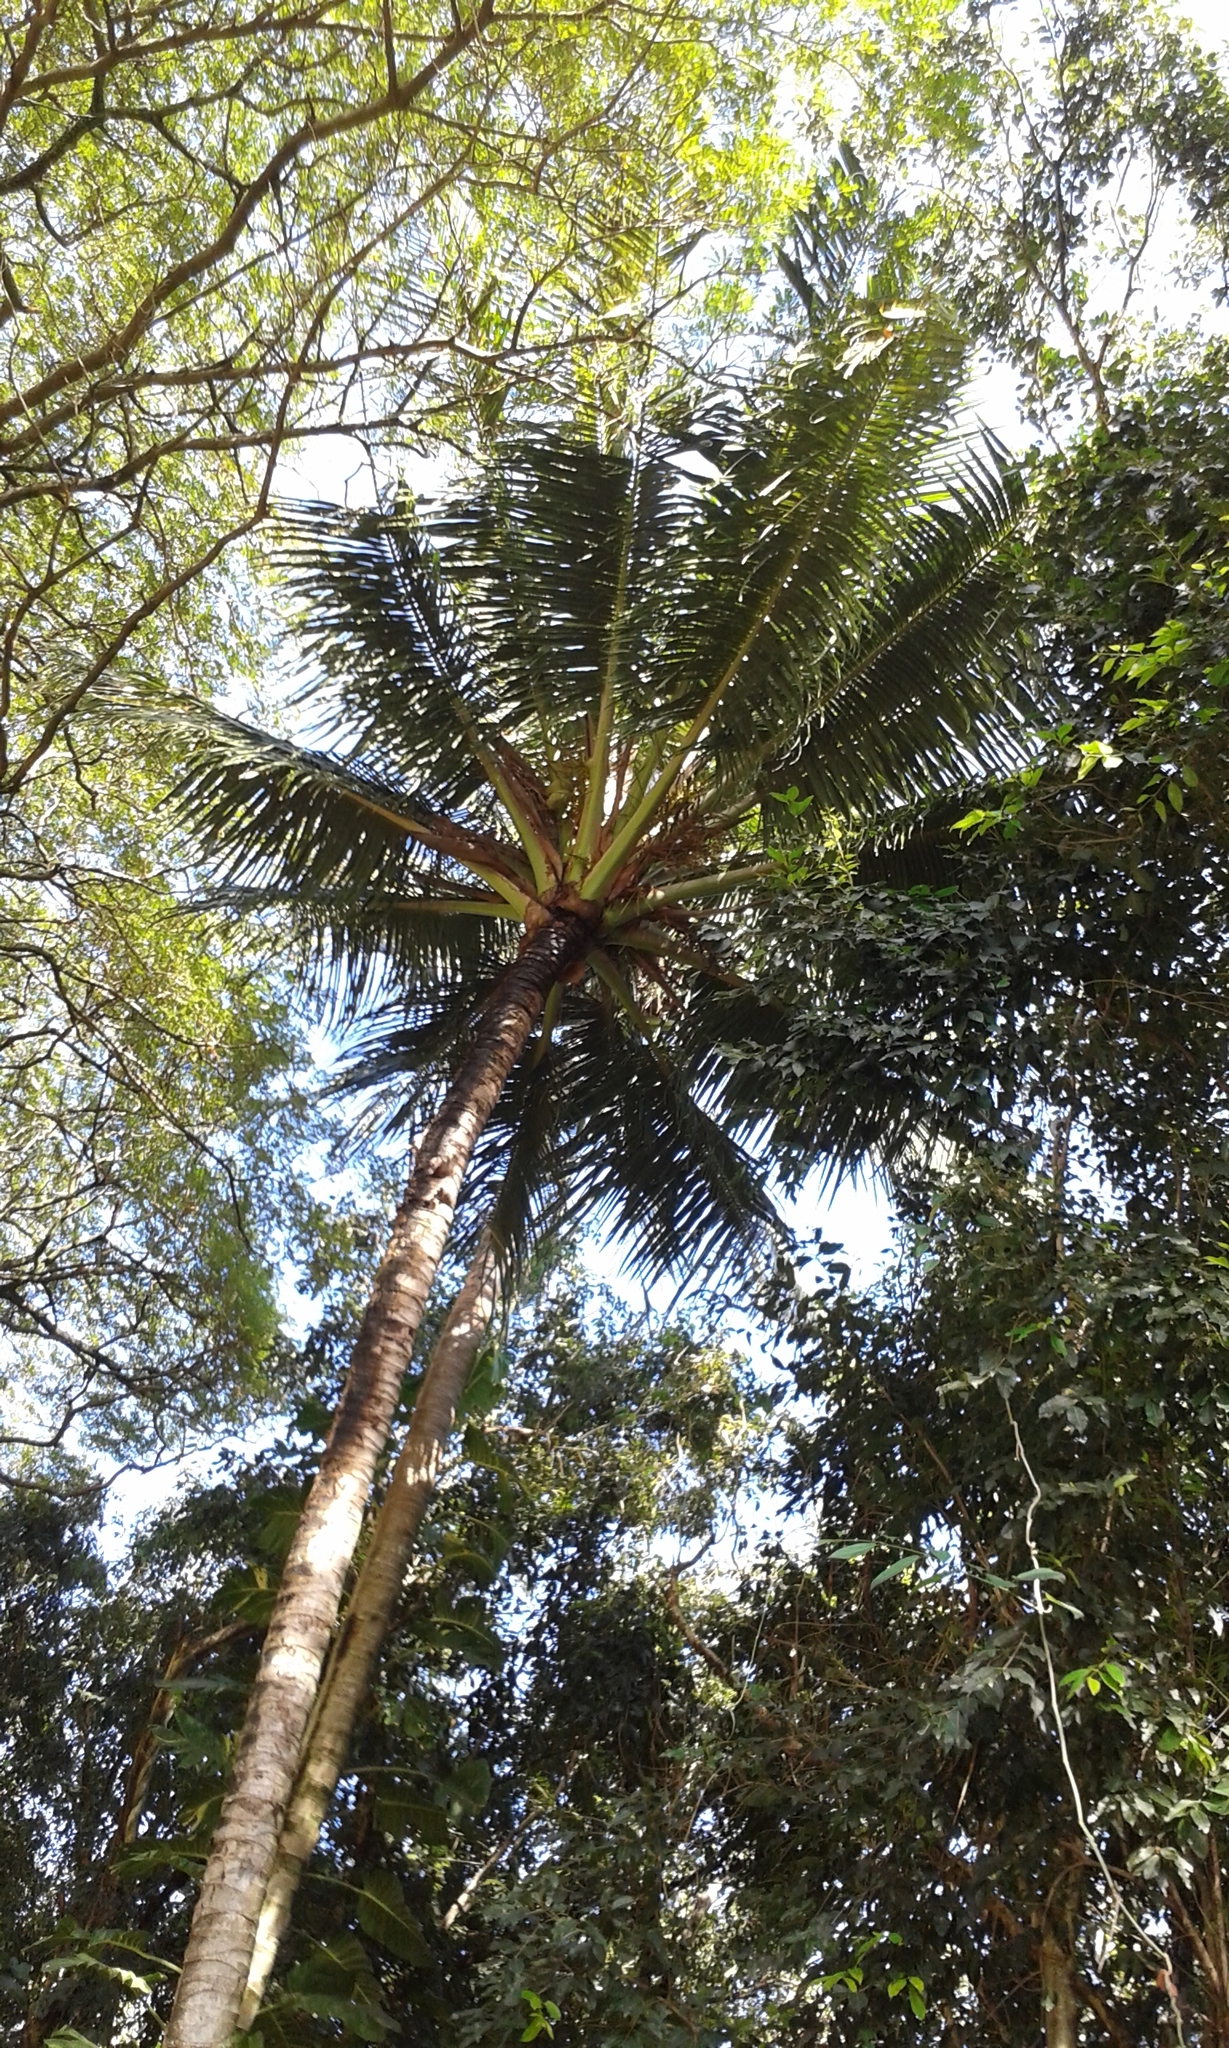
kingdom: Plantae
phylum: Tracheophyta
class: Liliopsida
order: Arecales
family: Arecaceae
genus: Cocos
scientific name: Cocos nucifera
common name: Coconut palm
